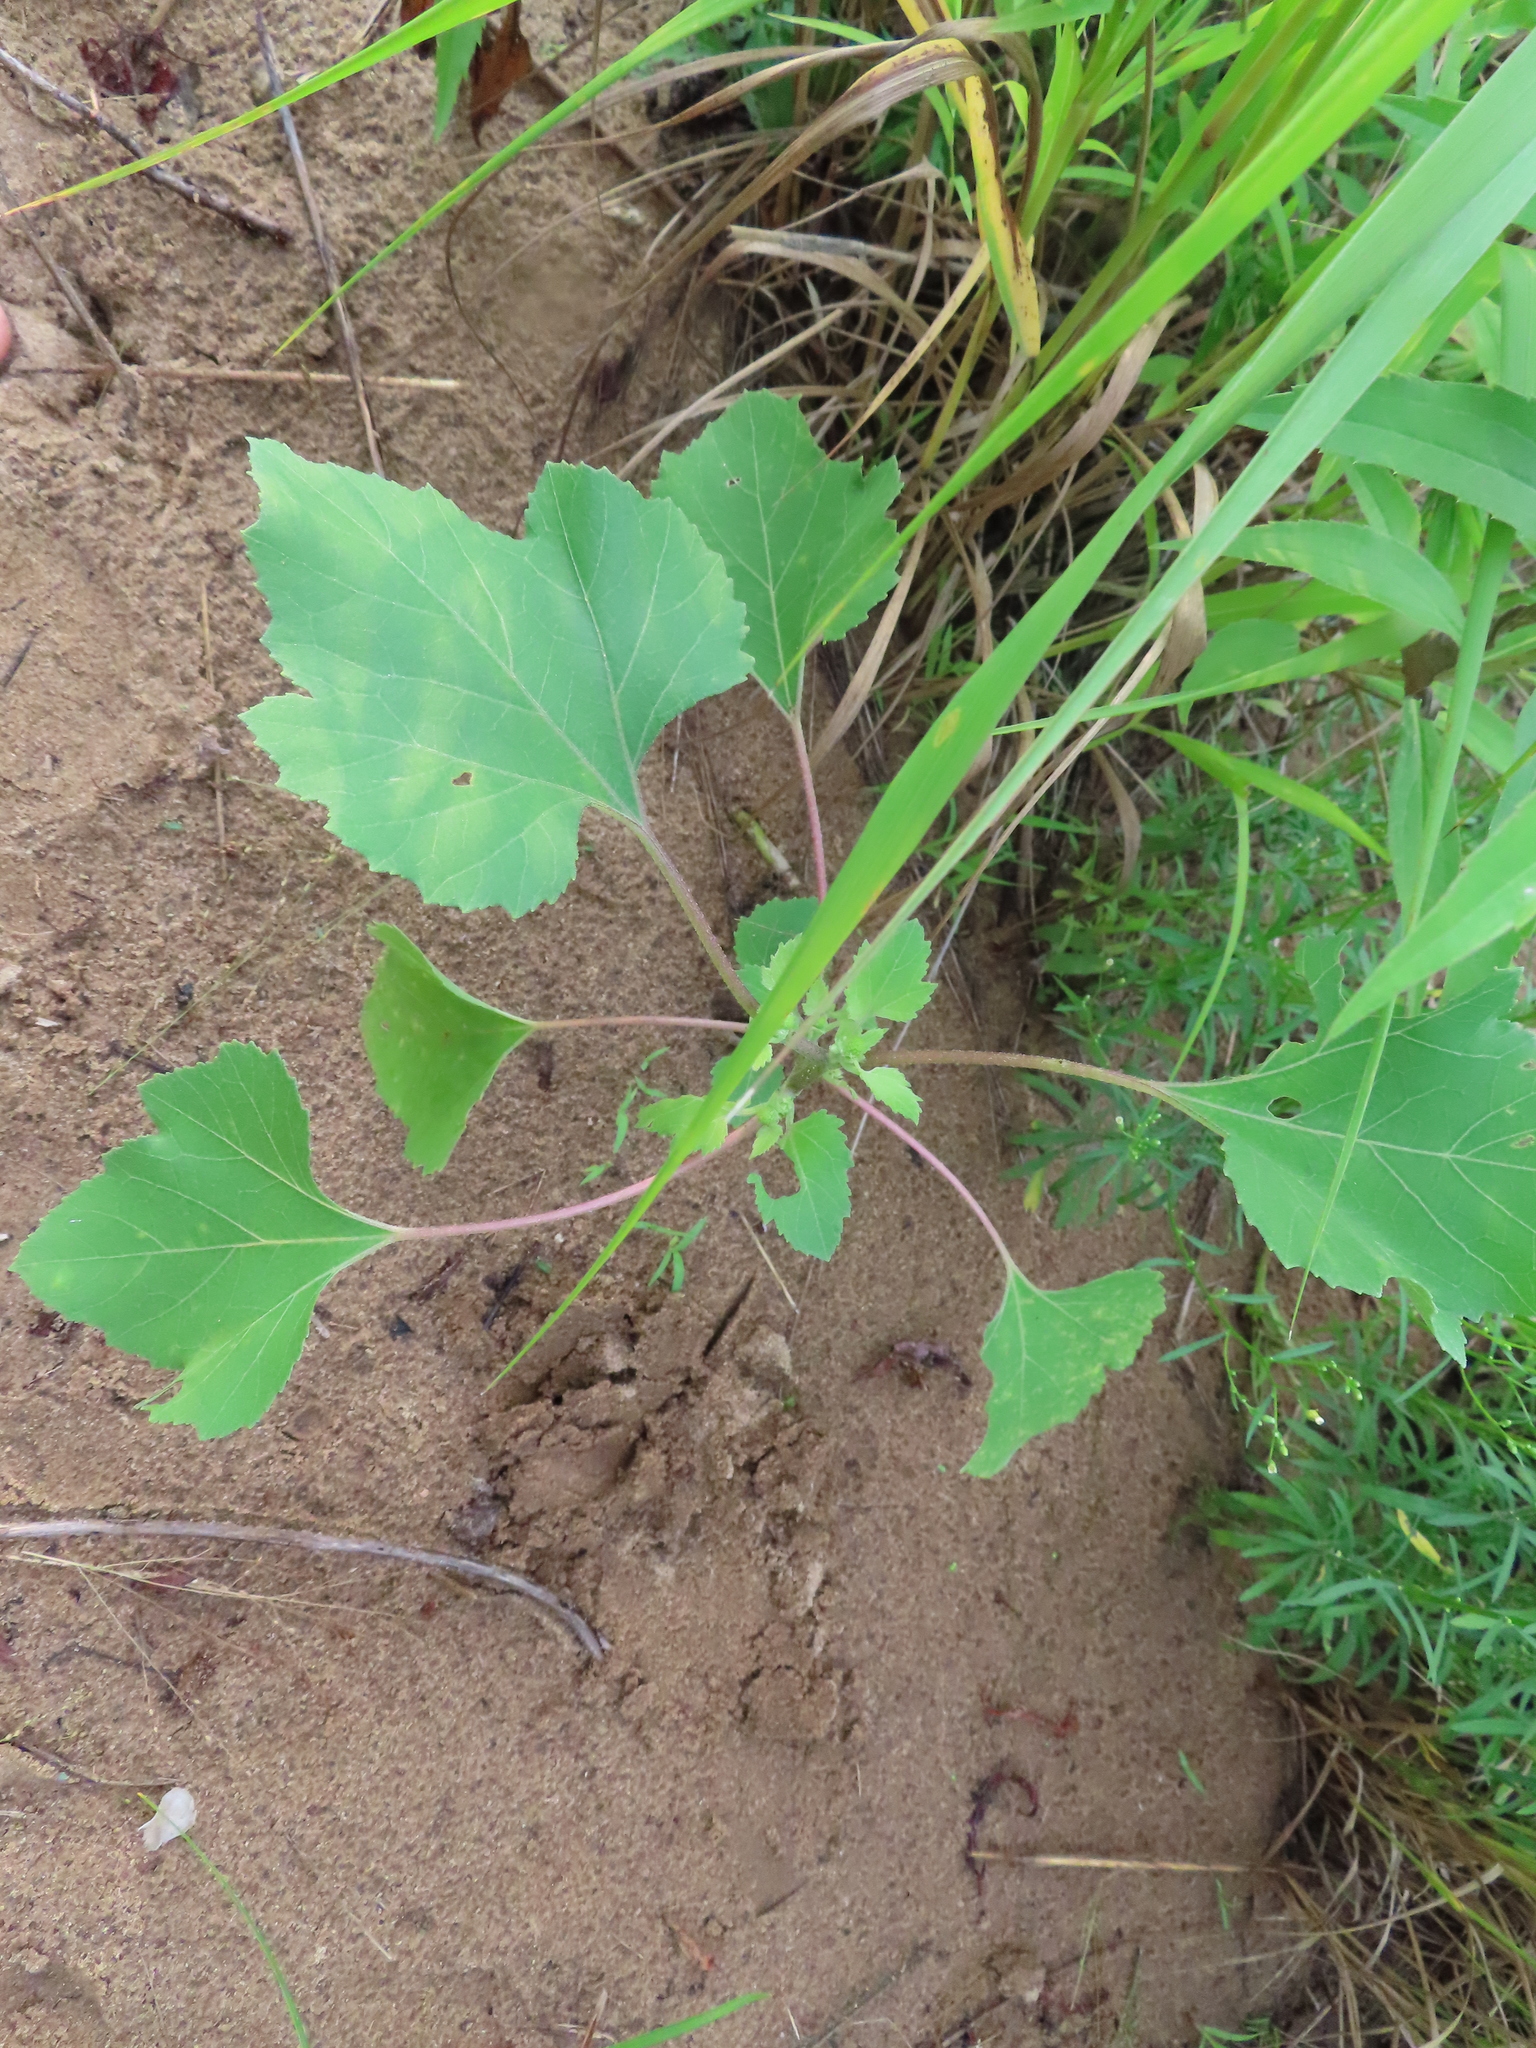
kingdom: Plantae
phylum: Tracheophyta
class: Magnoliopsida
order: Asterales
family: Asteraceae
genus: Xanthium
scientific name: Xanthium strumarium
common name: Rough cocklebur
